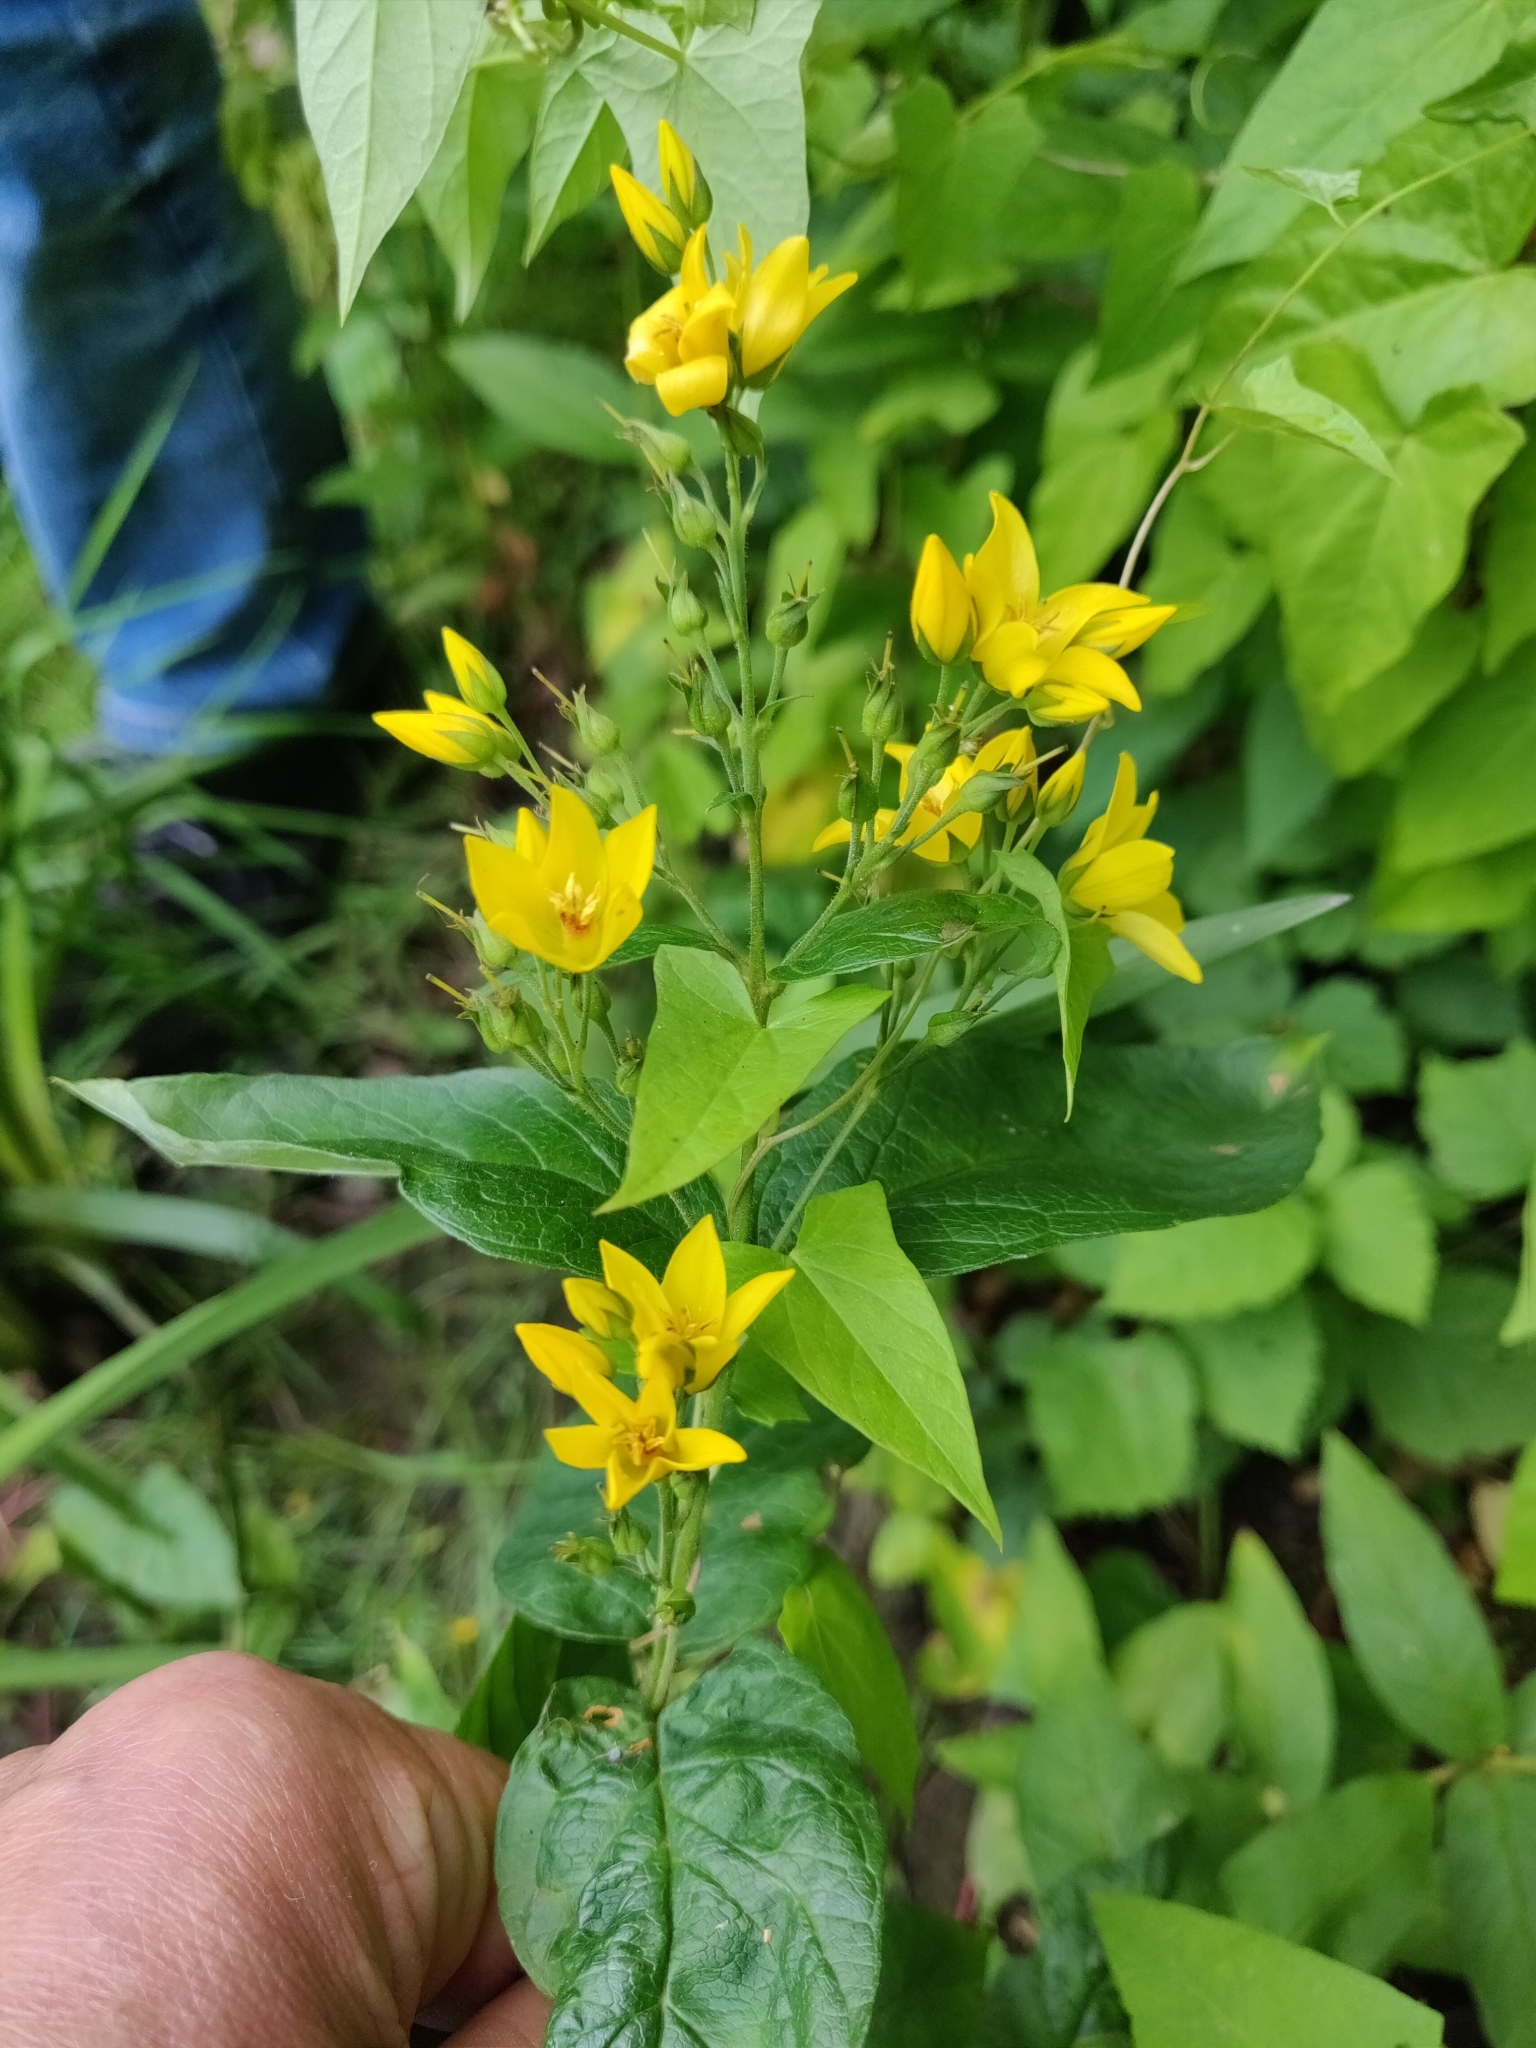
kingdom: Plantae
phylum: Tracheophyta
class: Magnoliopsida
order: Ericales
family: Primulaceae
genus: Lysimachia
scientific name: Lysimachia vulgaris
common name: Yellow loosestrife
